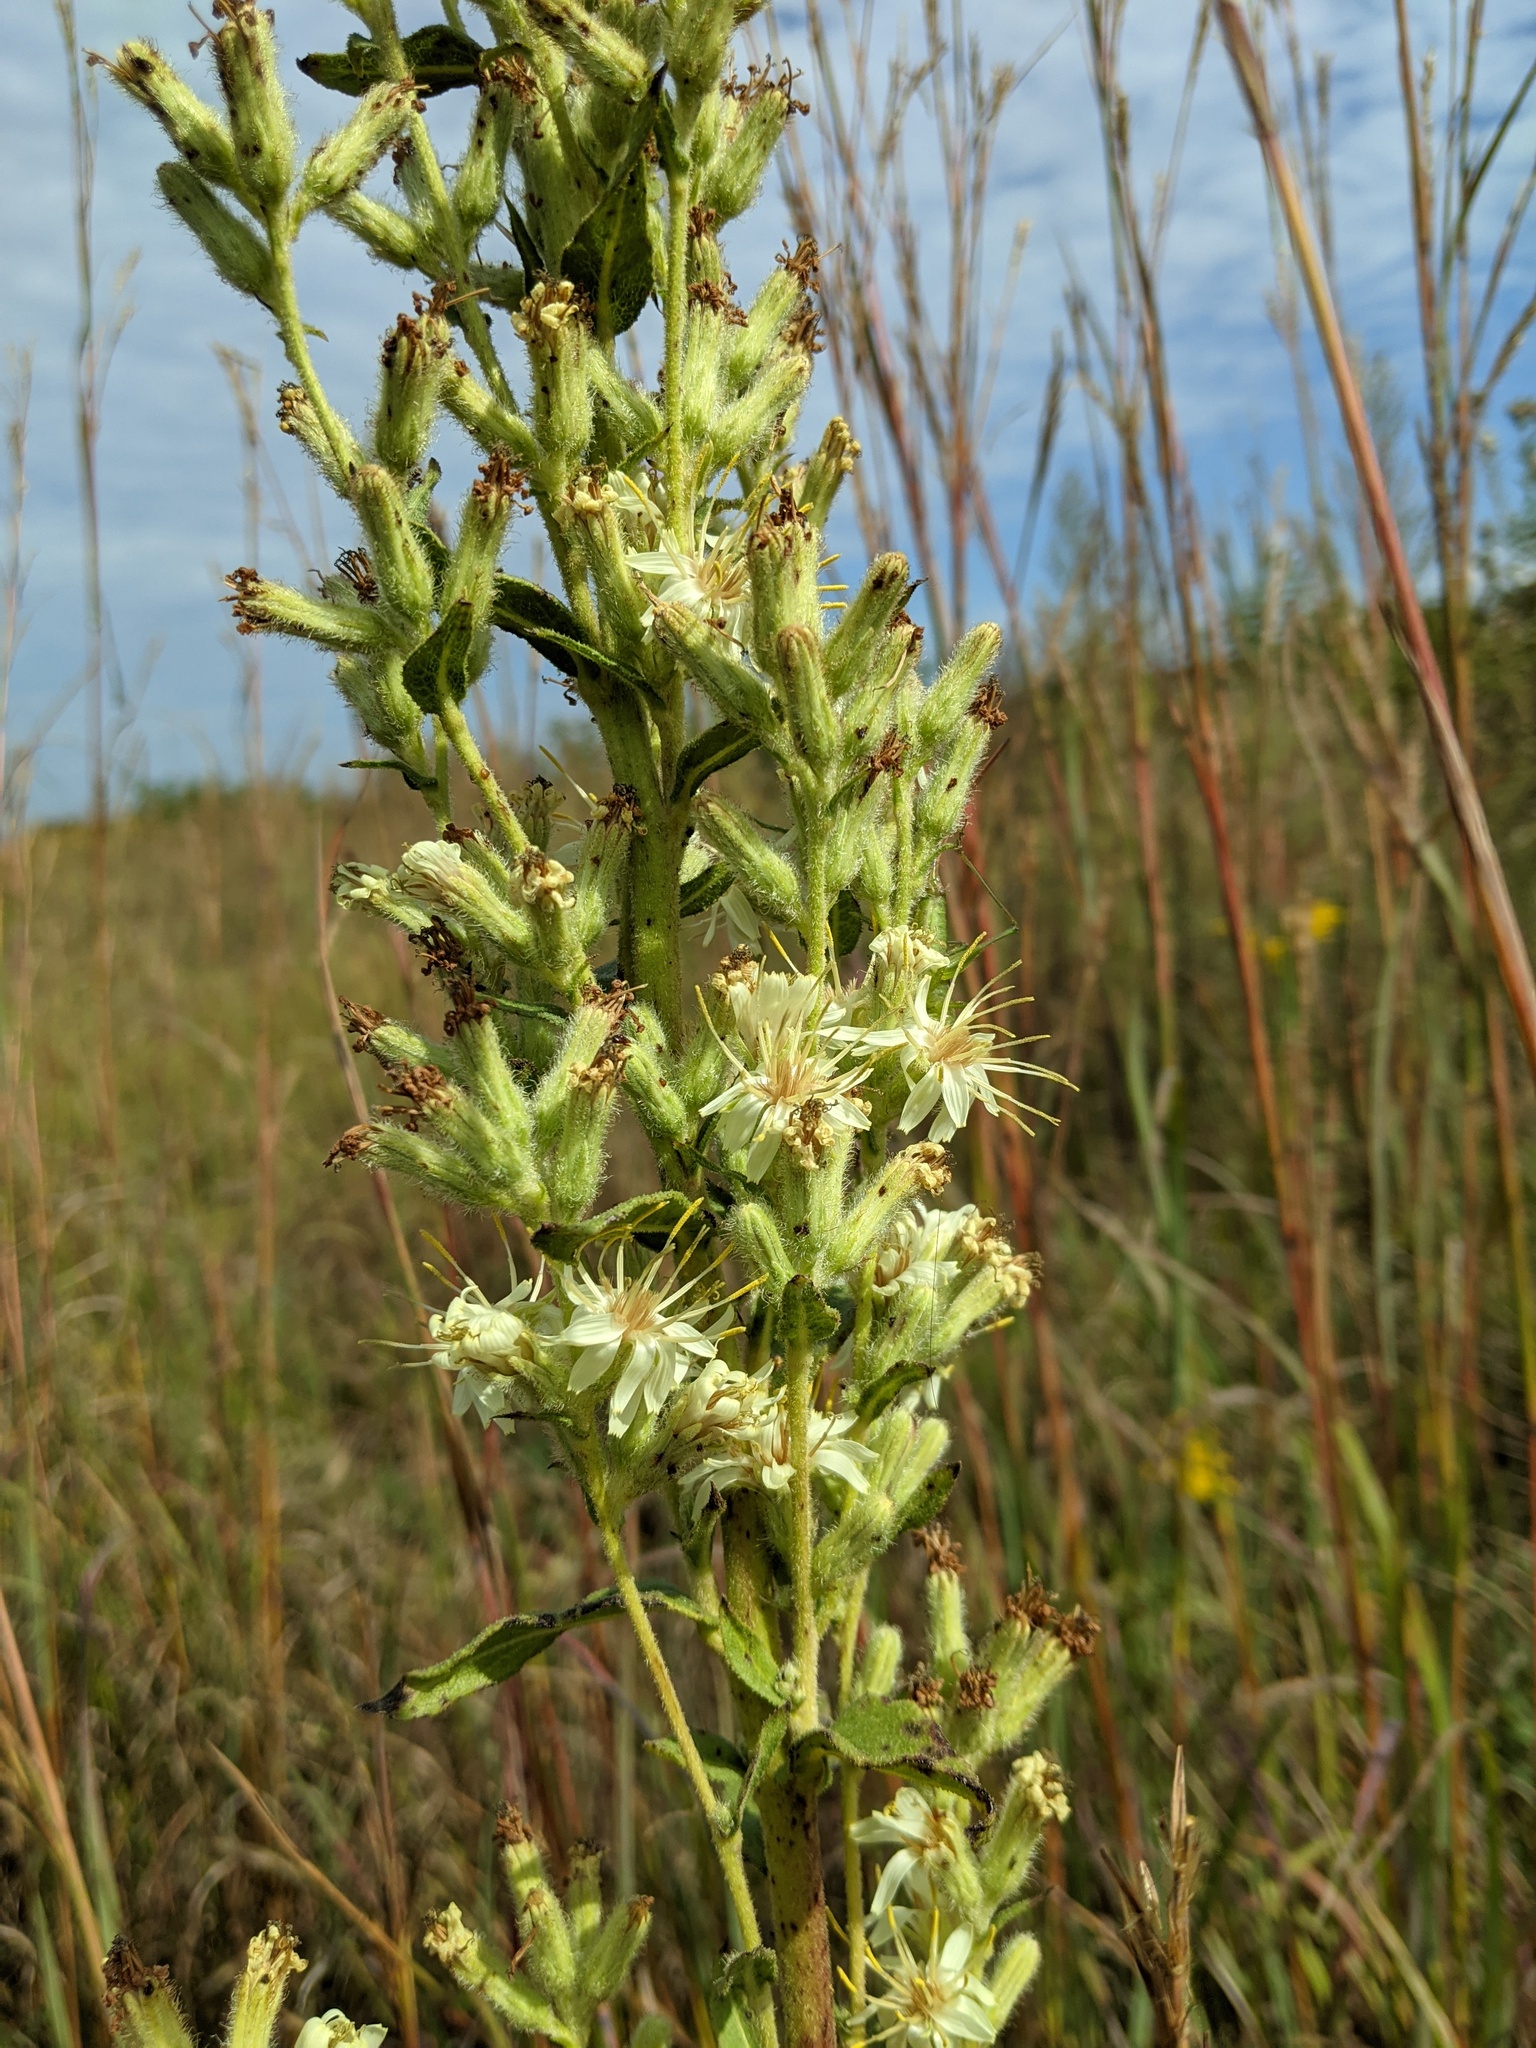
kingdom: Plantae
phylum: Tracheophyta
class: Magnoliopsida
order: Asterales
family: Asteraceae
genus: Nabalus
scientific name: Nabalus asper
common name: Rough rattlesnakeroot
